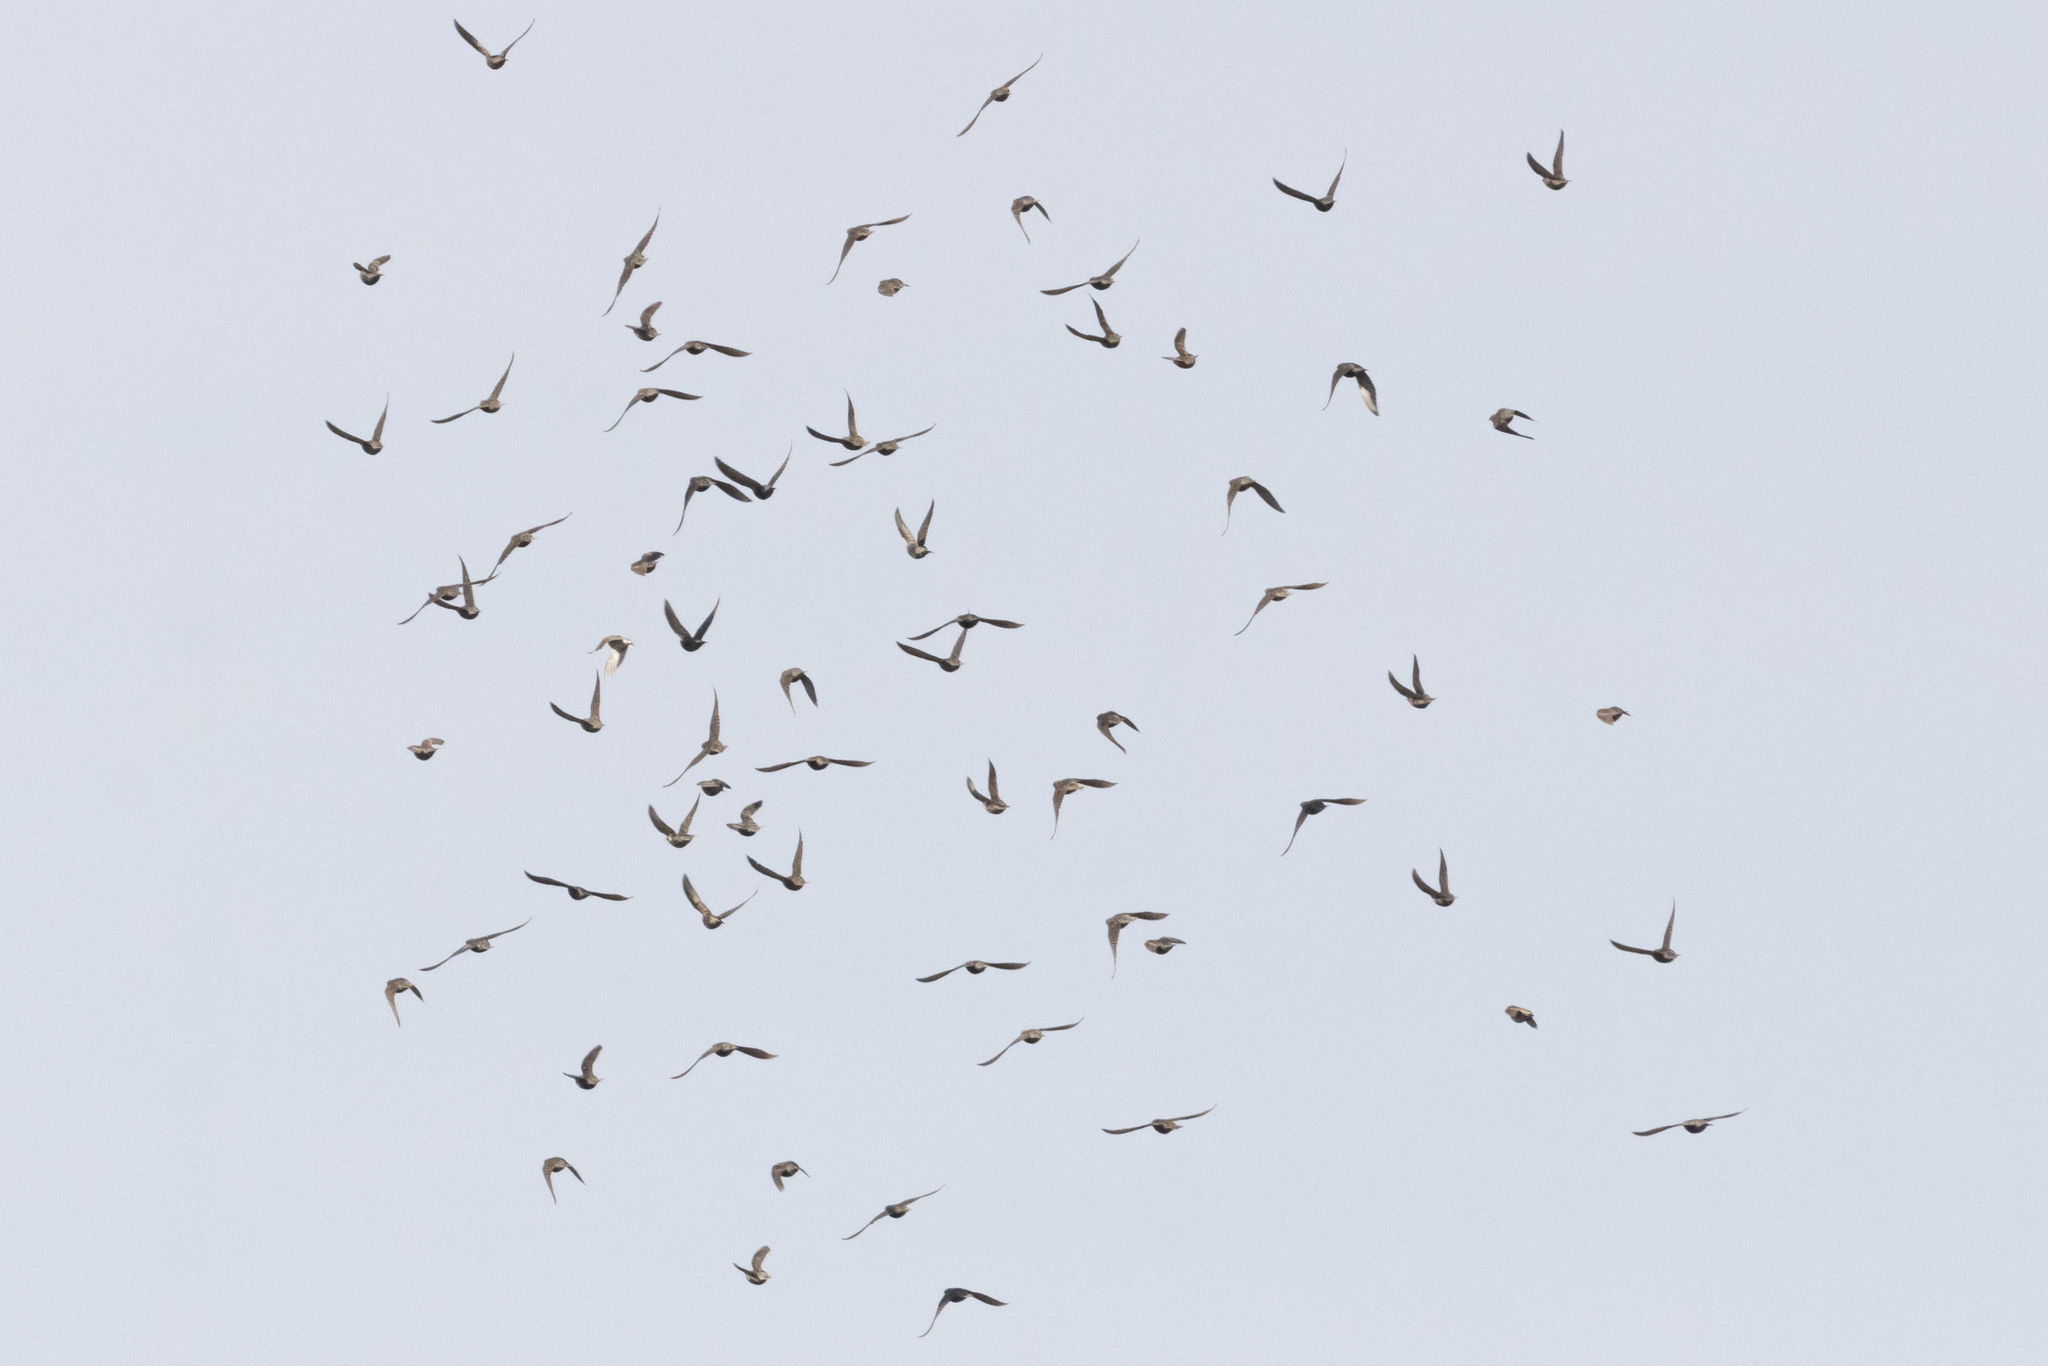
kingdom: Animalia
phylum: Chordata
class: Aves
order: Passeriformes
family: Sturnidae
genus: Sturnus
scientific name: Sturnus vulgaris
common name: Common starling
